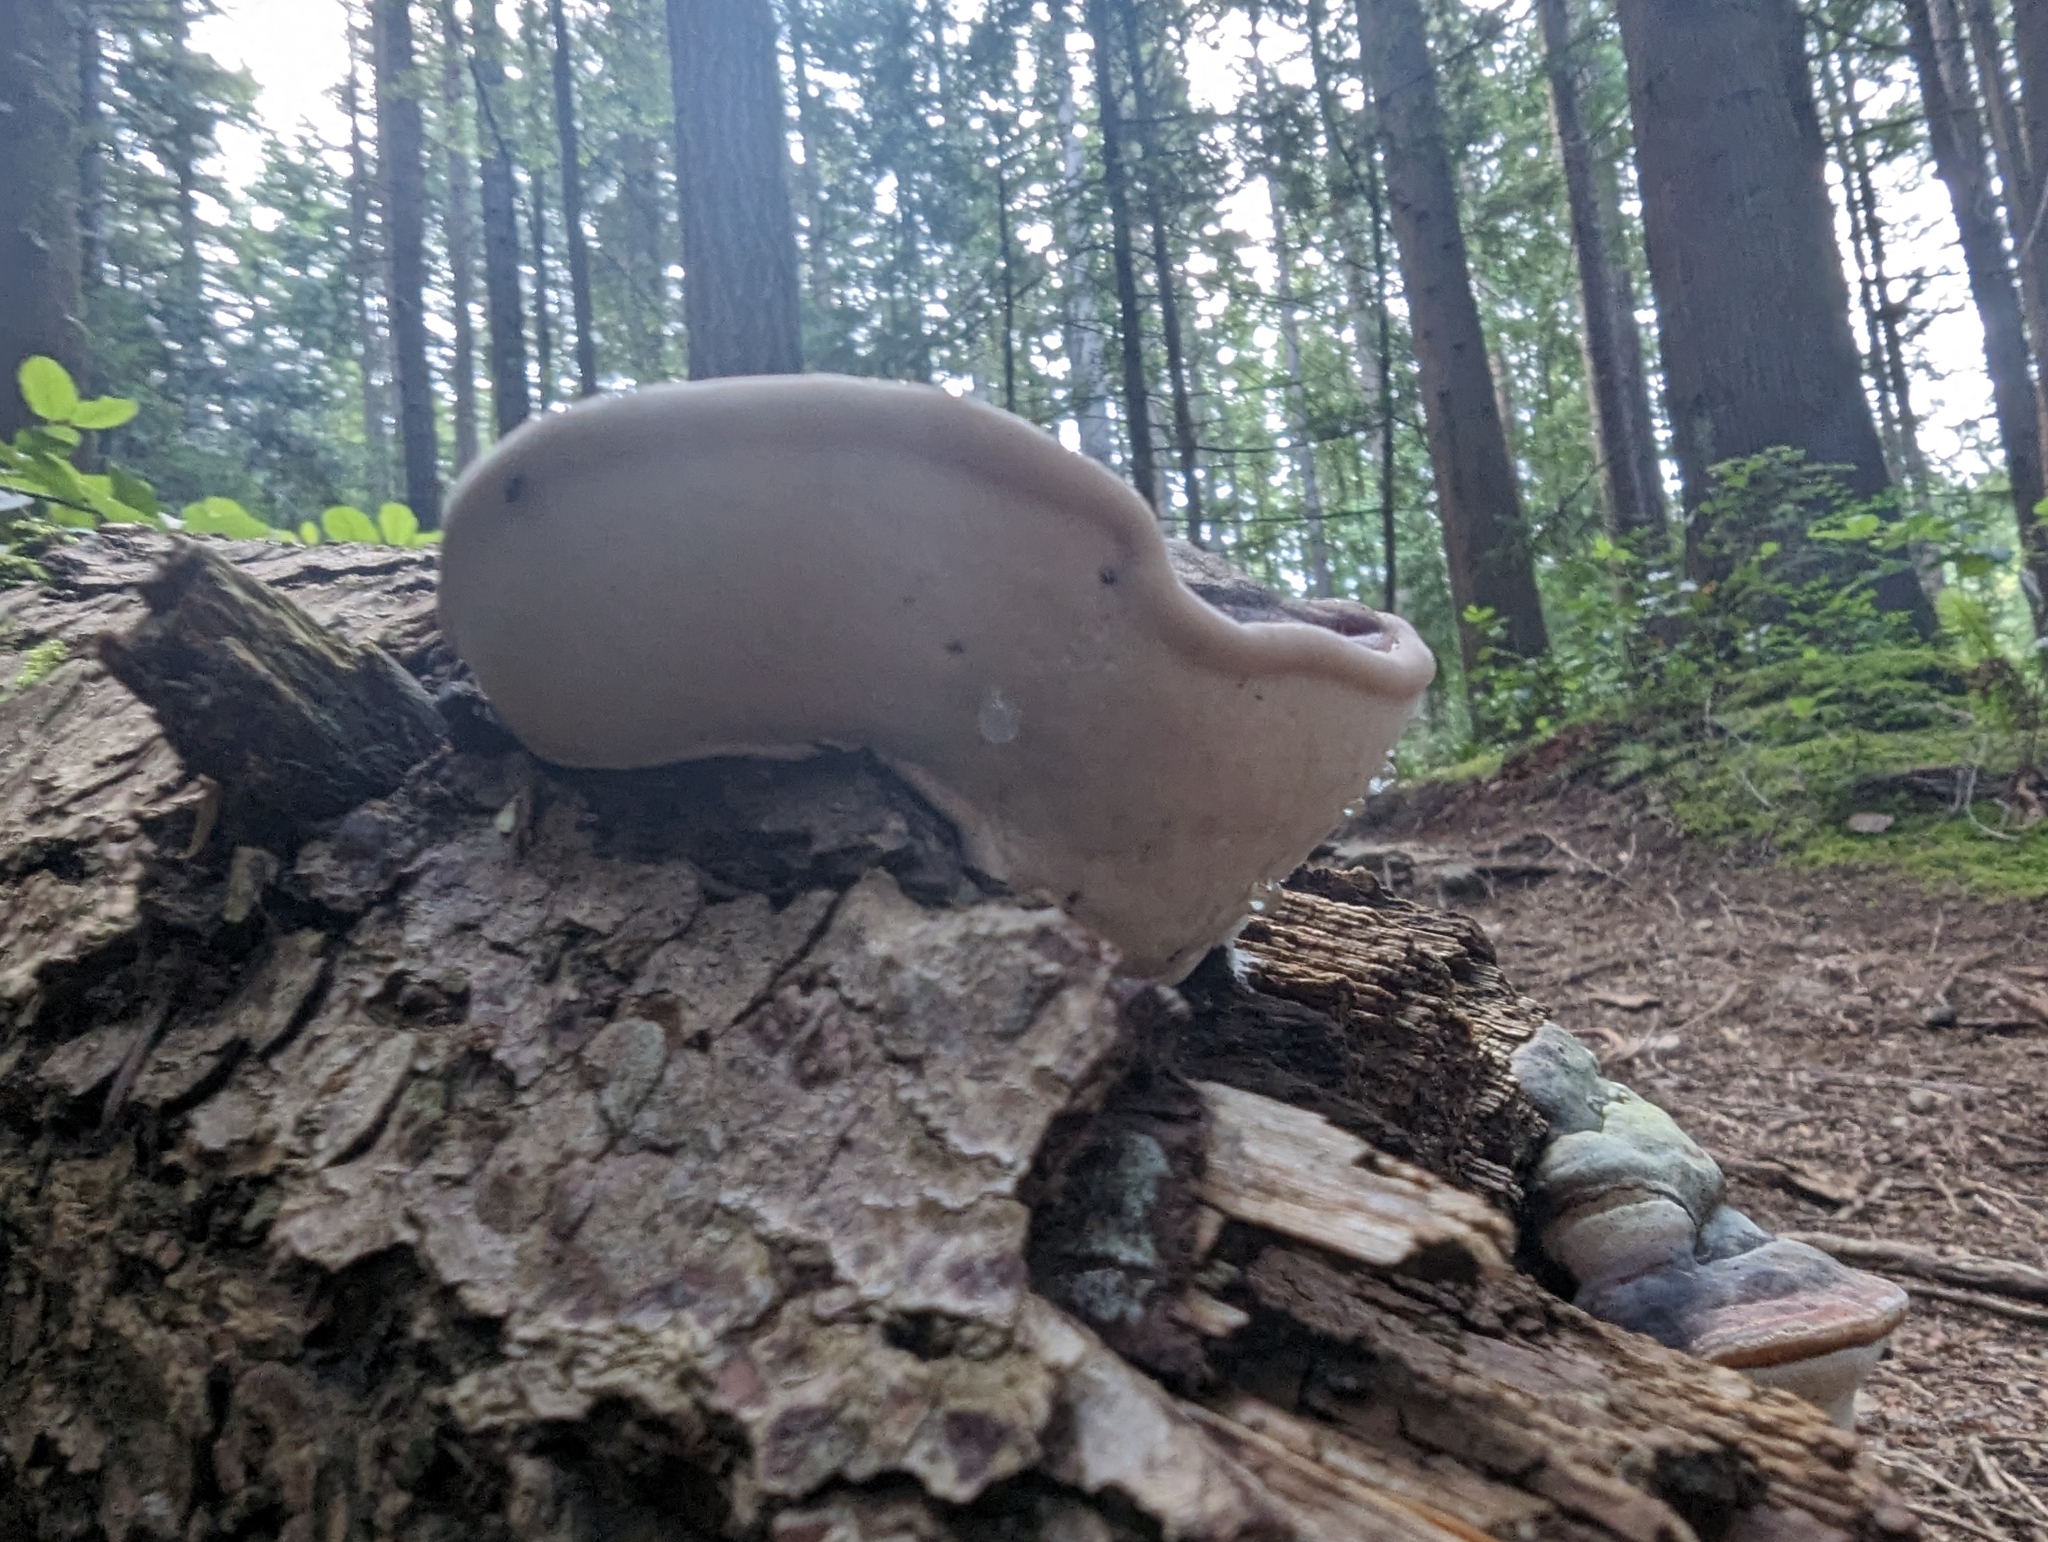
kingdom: Fungi
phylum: Basidiomycota
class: Agaricomycetes
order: Polyporales
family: Fomitopsidaceae
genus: Fomitopsis
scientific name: Fomitopsis mounceae
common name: Northern red belt
